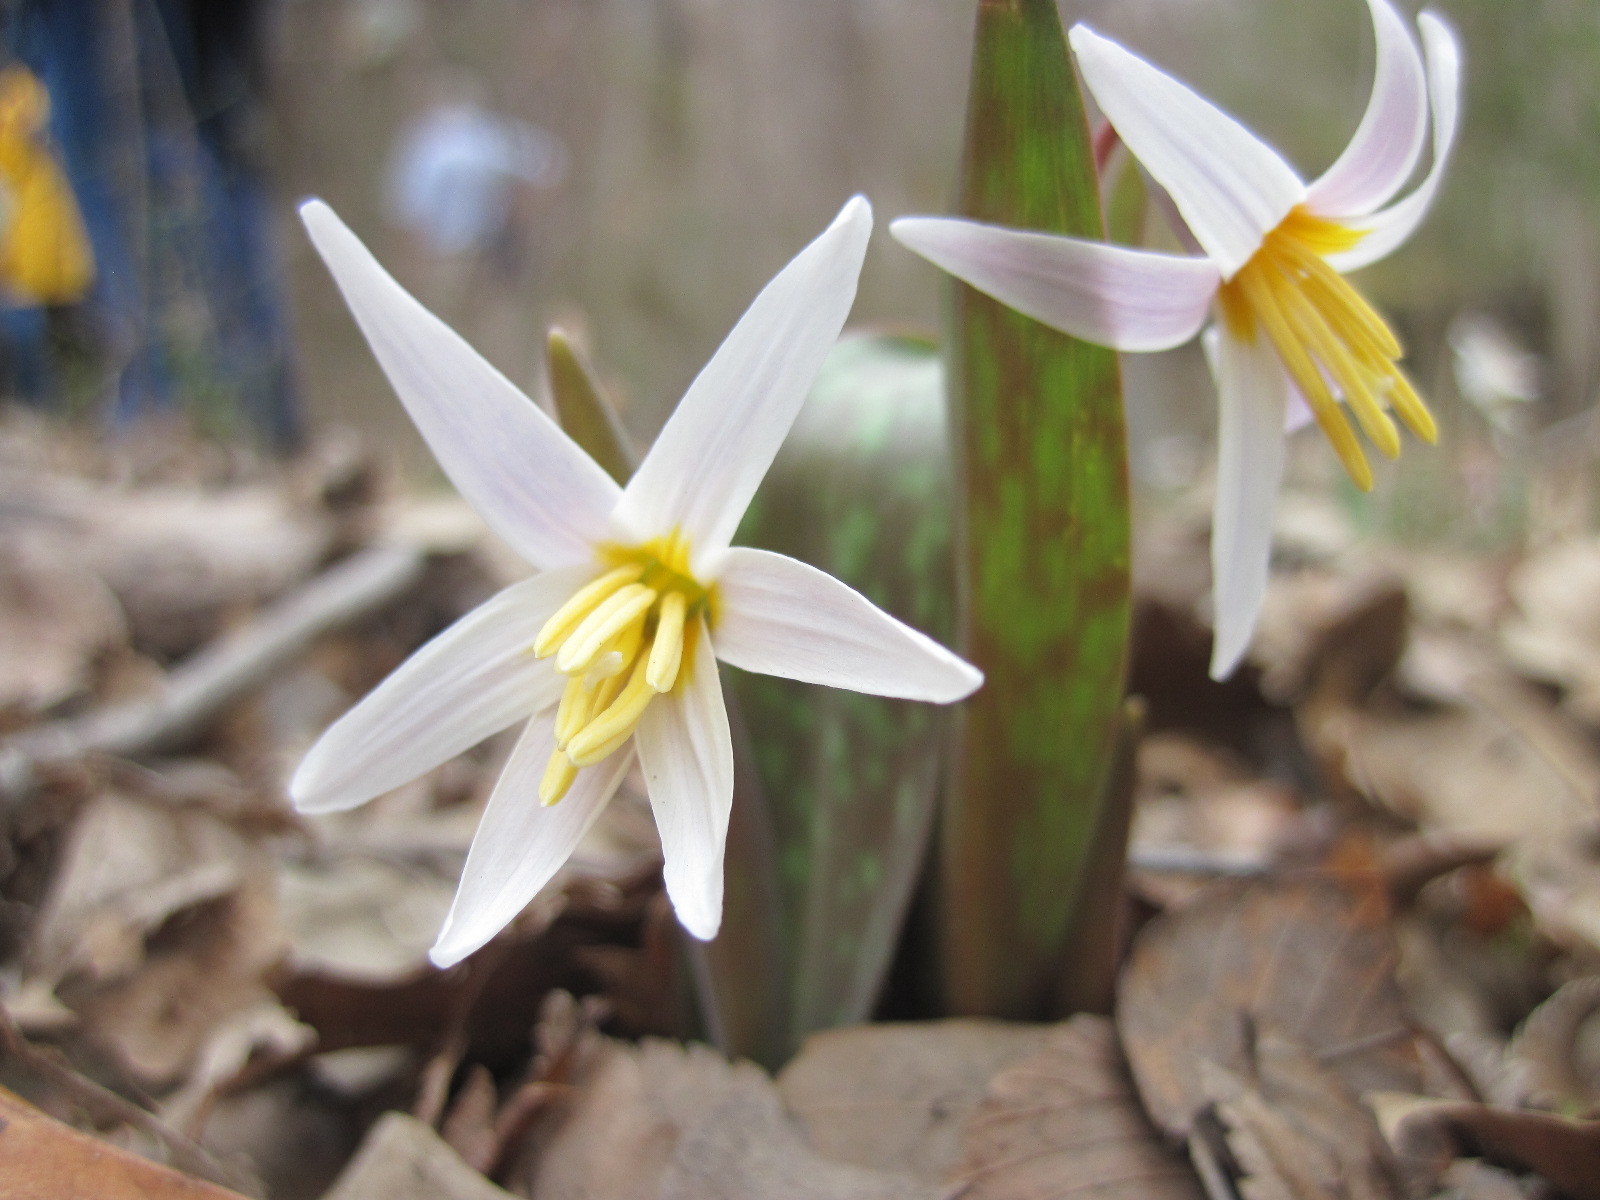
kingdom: Plantae
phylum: Tracheophyta
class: Liliopsida
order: Liliales
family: Liliaceae
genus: Erythronium
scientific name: Erythronium albidum
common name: White trout-lily
